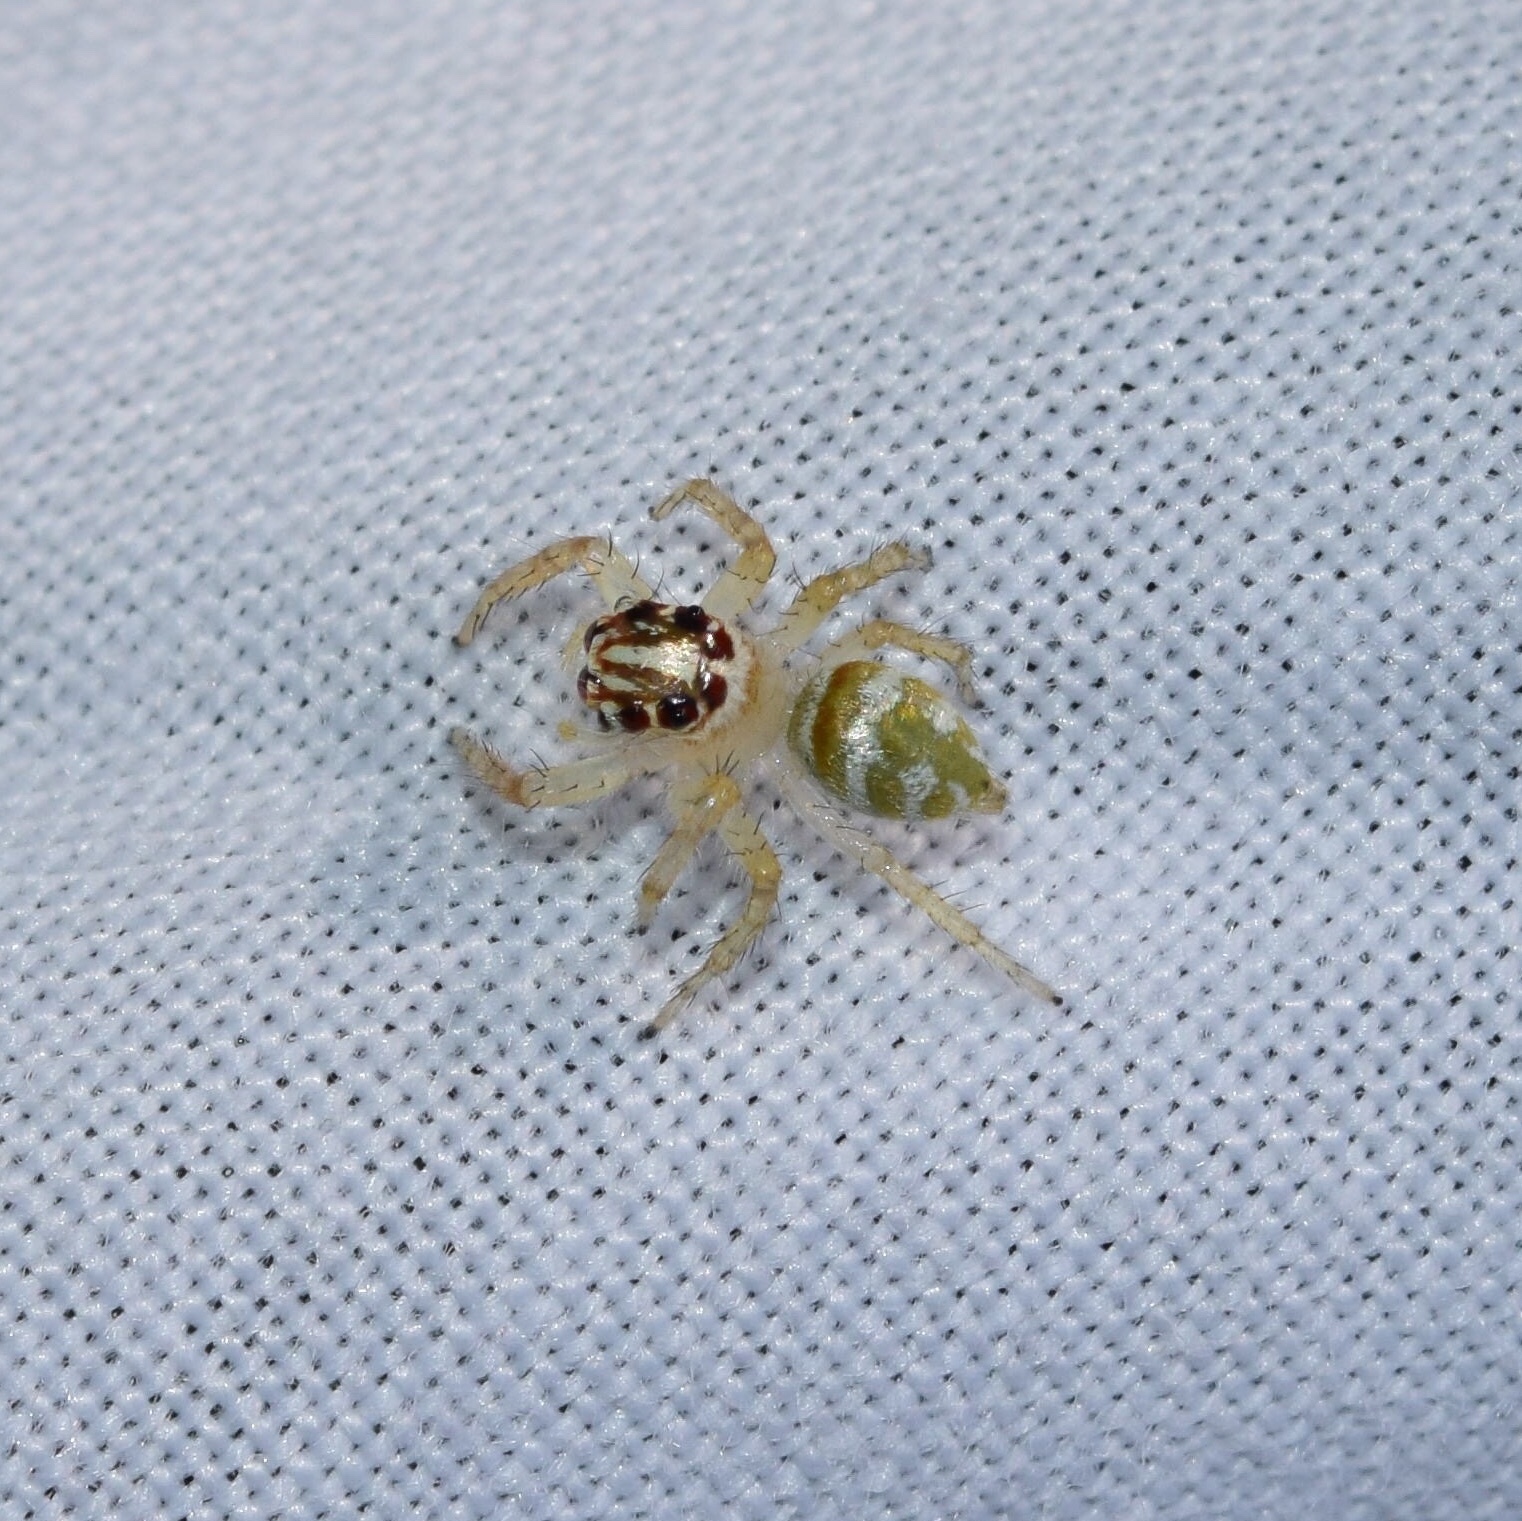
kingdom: Animalia
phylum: Arthropoda
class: Arachnida
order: Araneae
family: Salticidae
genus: Brancus
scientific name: Brancus mustelus
